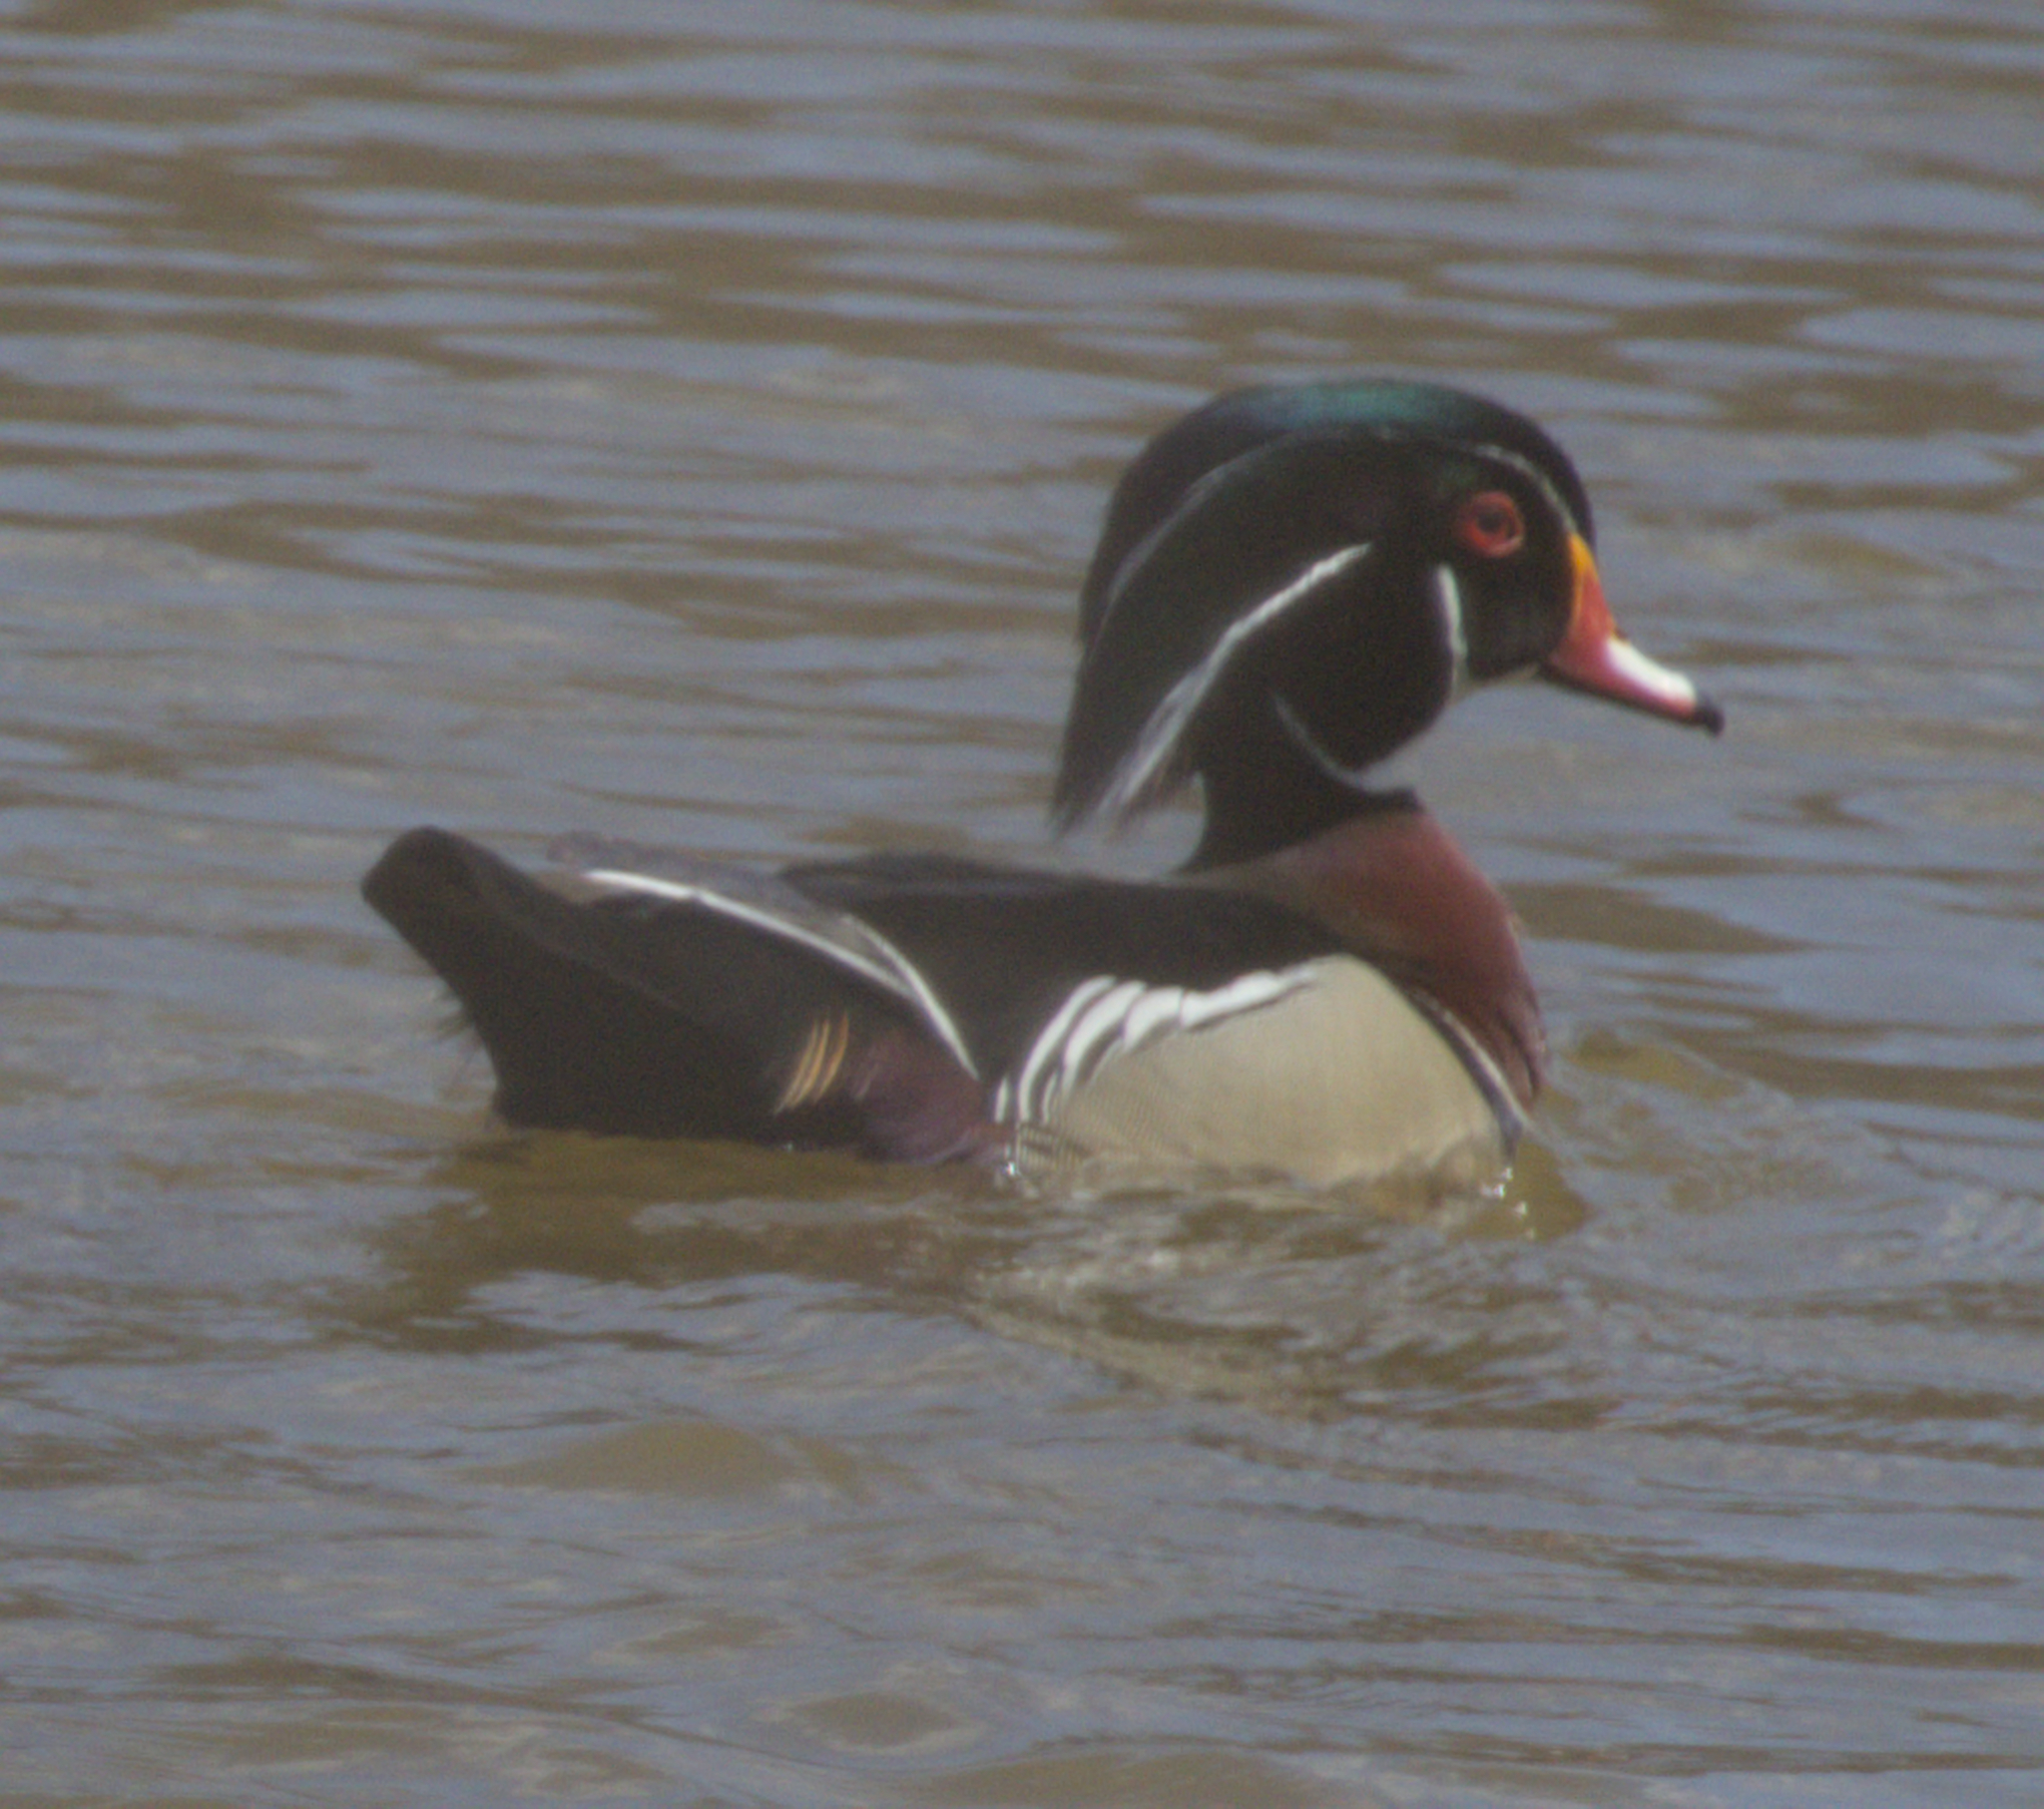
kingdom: Animalia
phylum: Chordata
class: Aves
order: Anseriformes
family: Anatidae
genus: Aix
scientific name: Aix sponsa
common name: Wood duck
